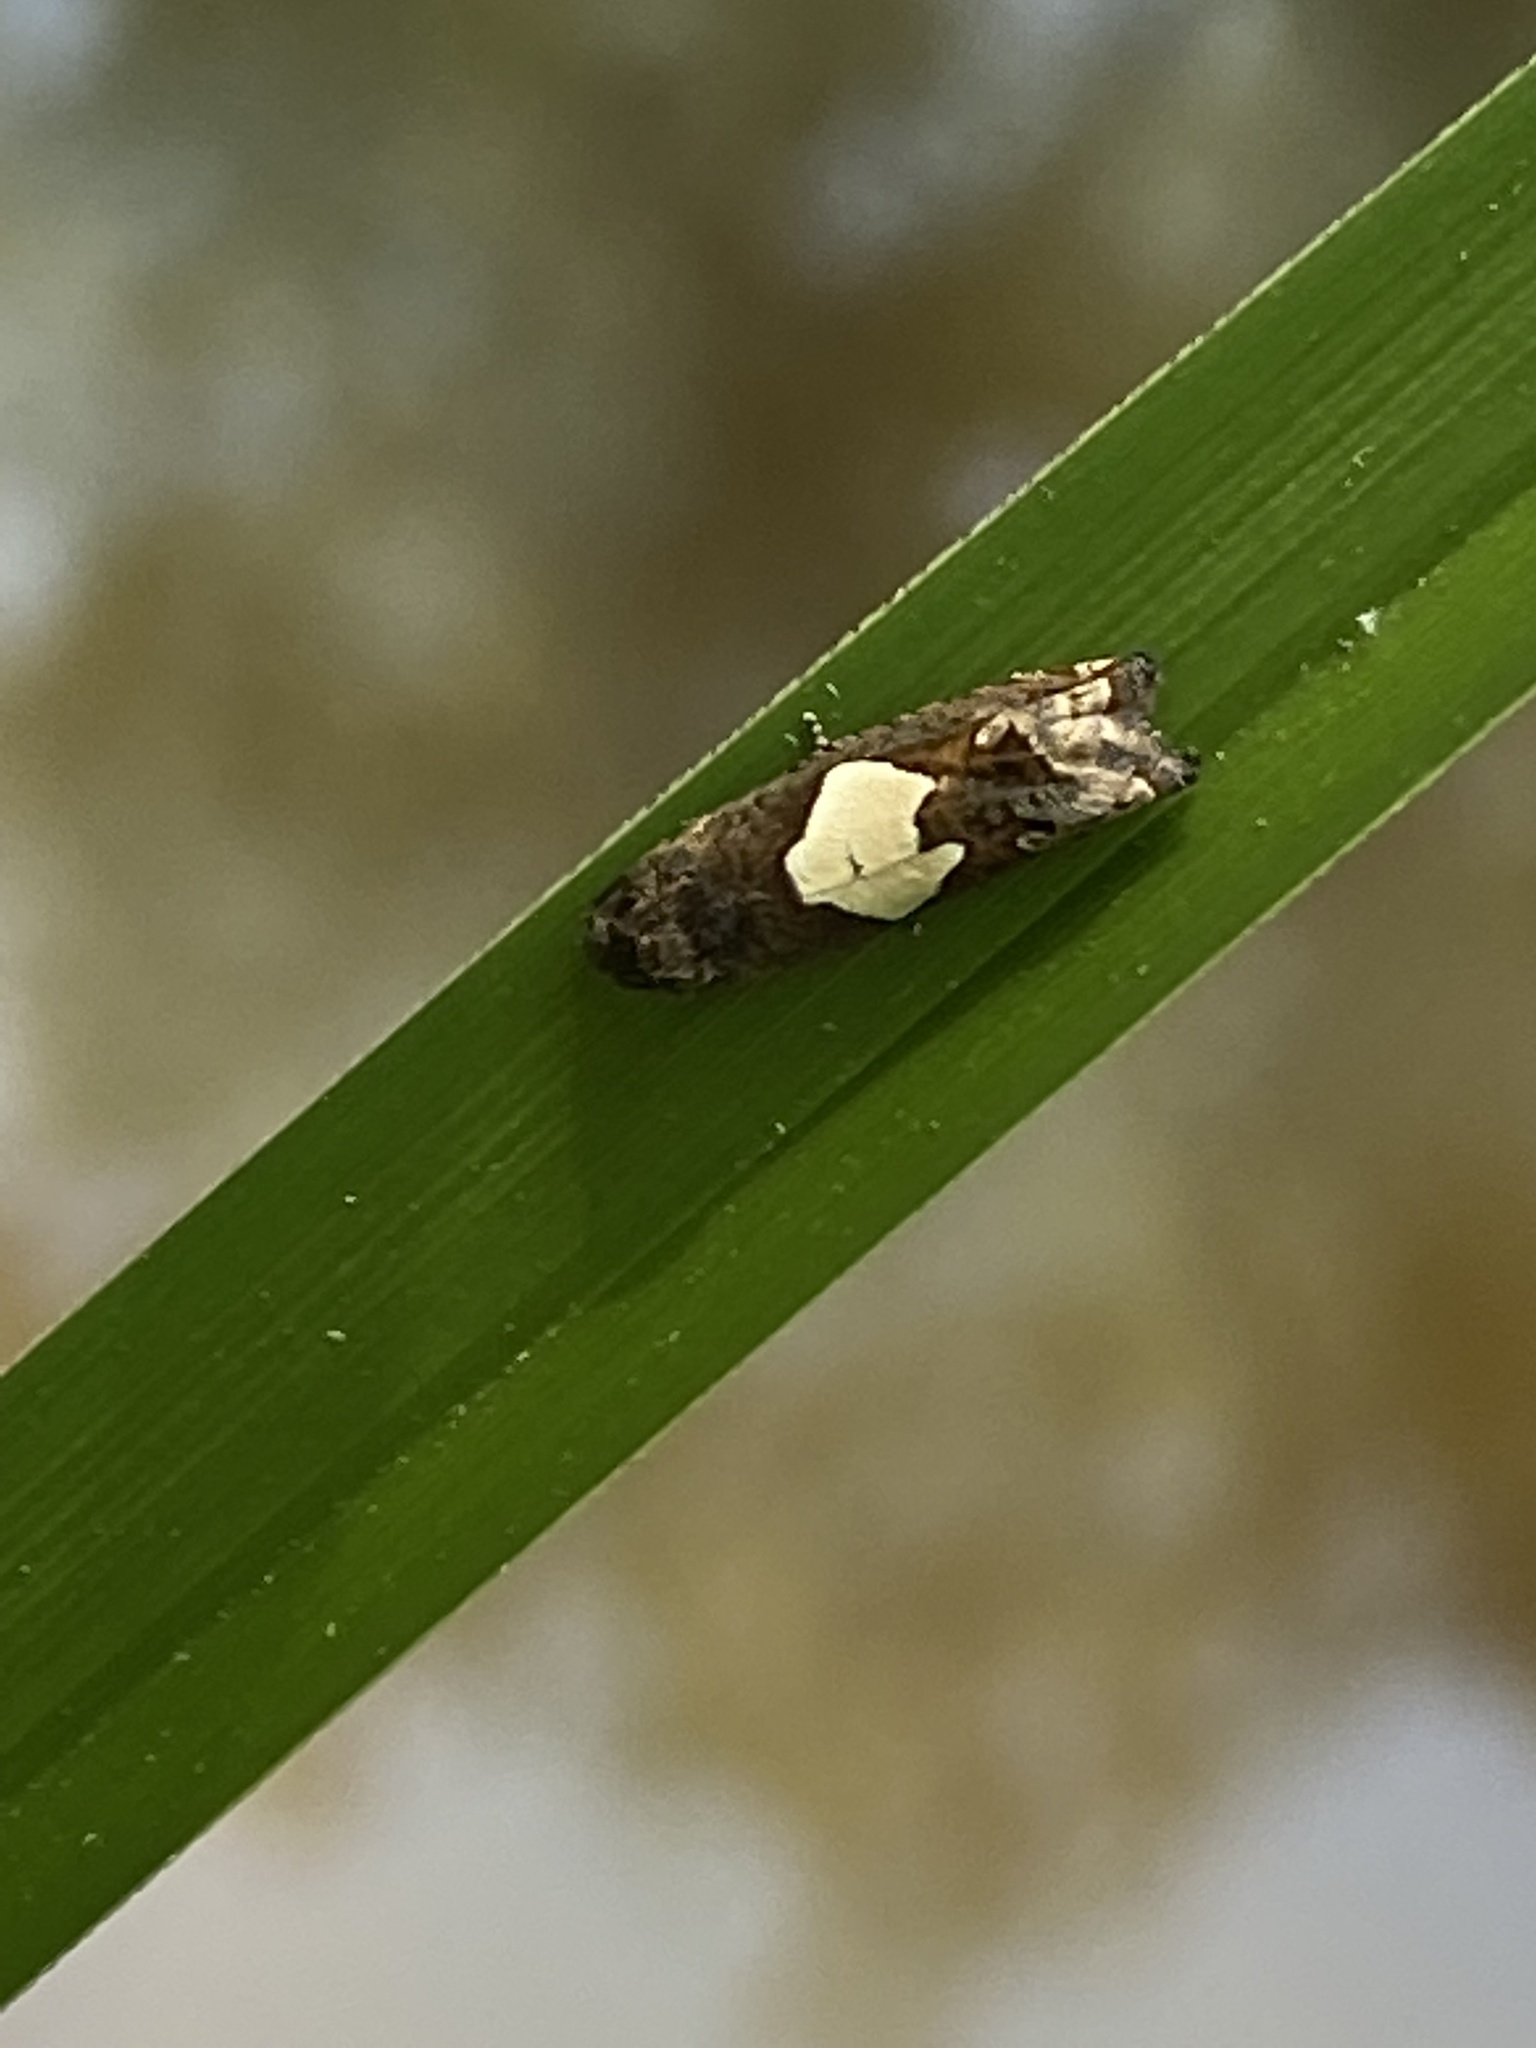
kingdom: Animalia
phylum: Arthropoda
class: Insecta
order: Lepidoptera
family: Tortricidae
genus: Epiblema
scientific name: Epiblema otiosana
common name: Bidens borer moth
